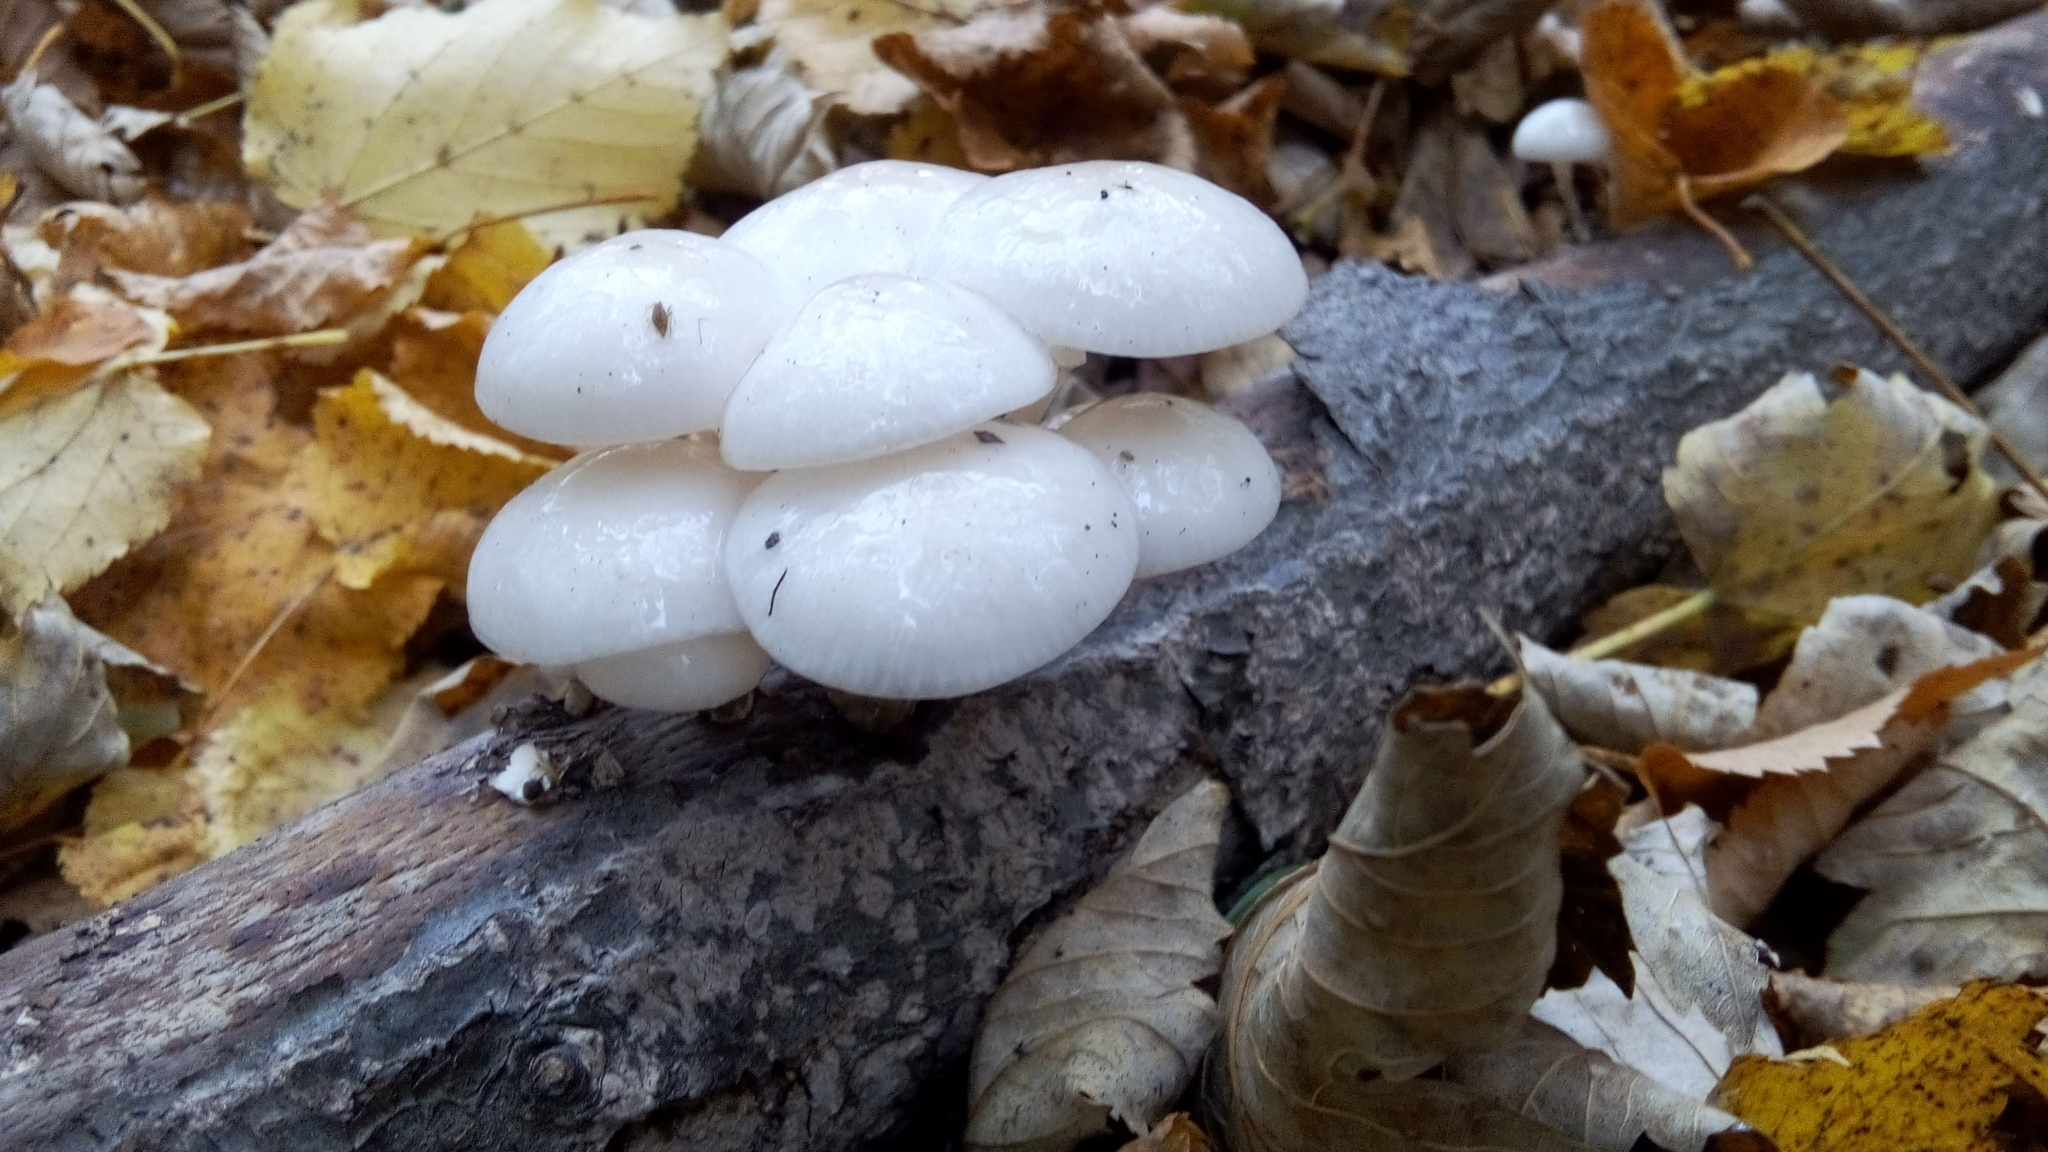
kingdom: Fungi
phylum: Basidiomycota
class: Agaricomycetes
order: Agaricales
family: Physalacriaceae
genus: Mucidula
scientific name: Mucidula mucida
